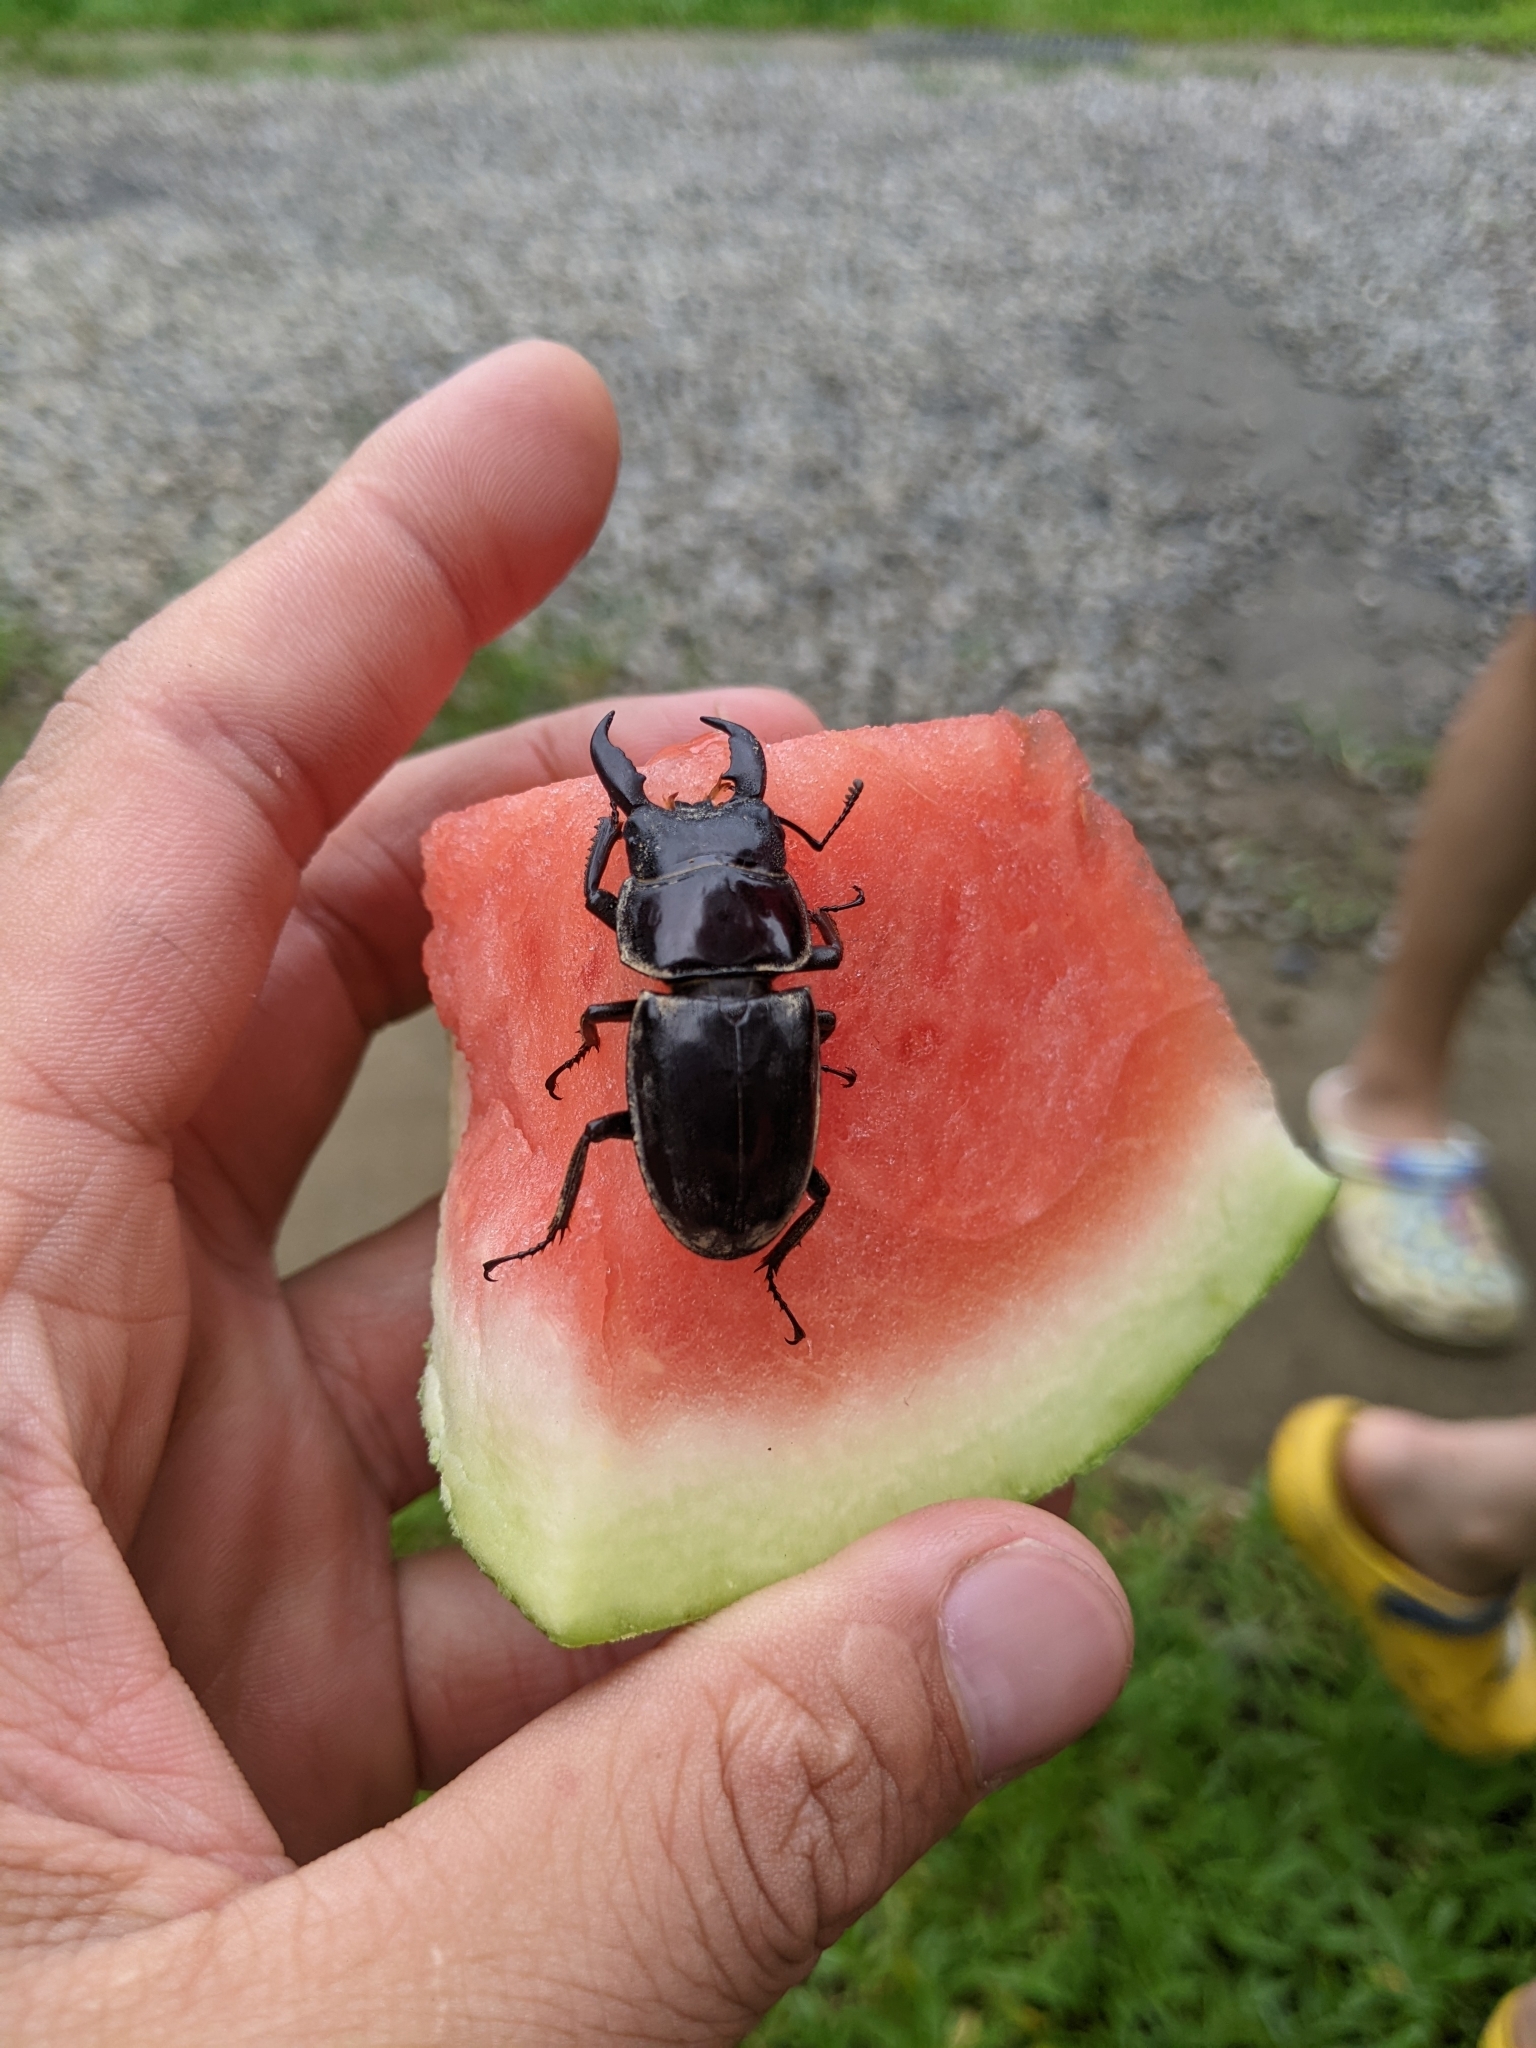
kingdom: Animalia
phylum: Arthropoda
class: Insecta
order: Coleoptera
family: Lucanidae
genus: Serrognathus
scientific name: Serrognathus titanus
